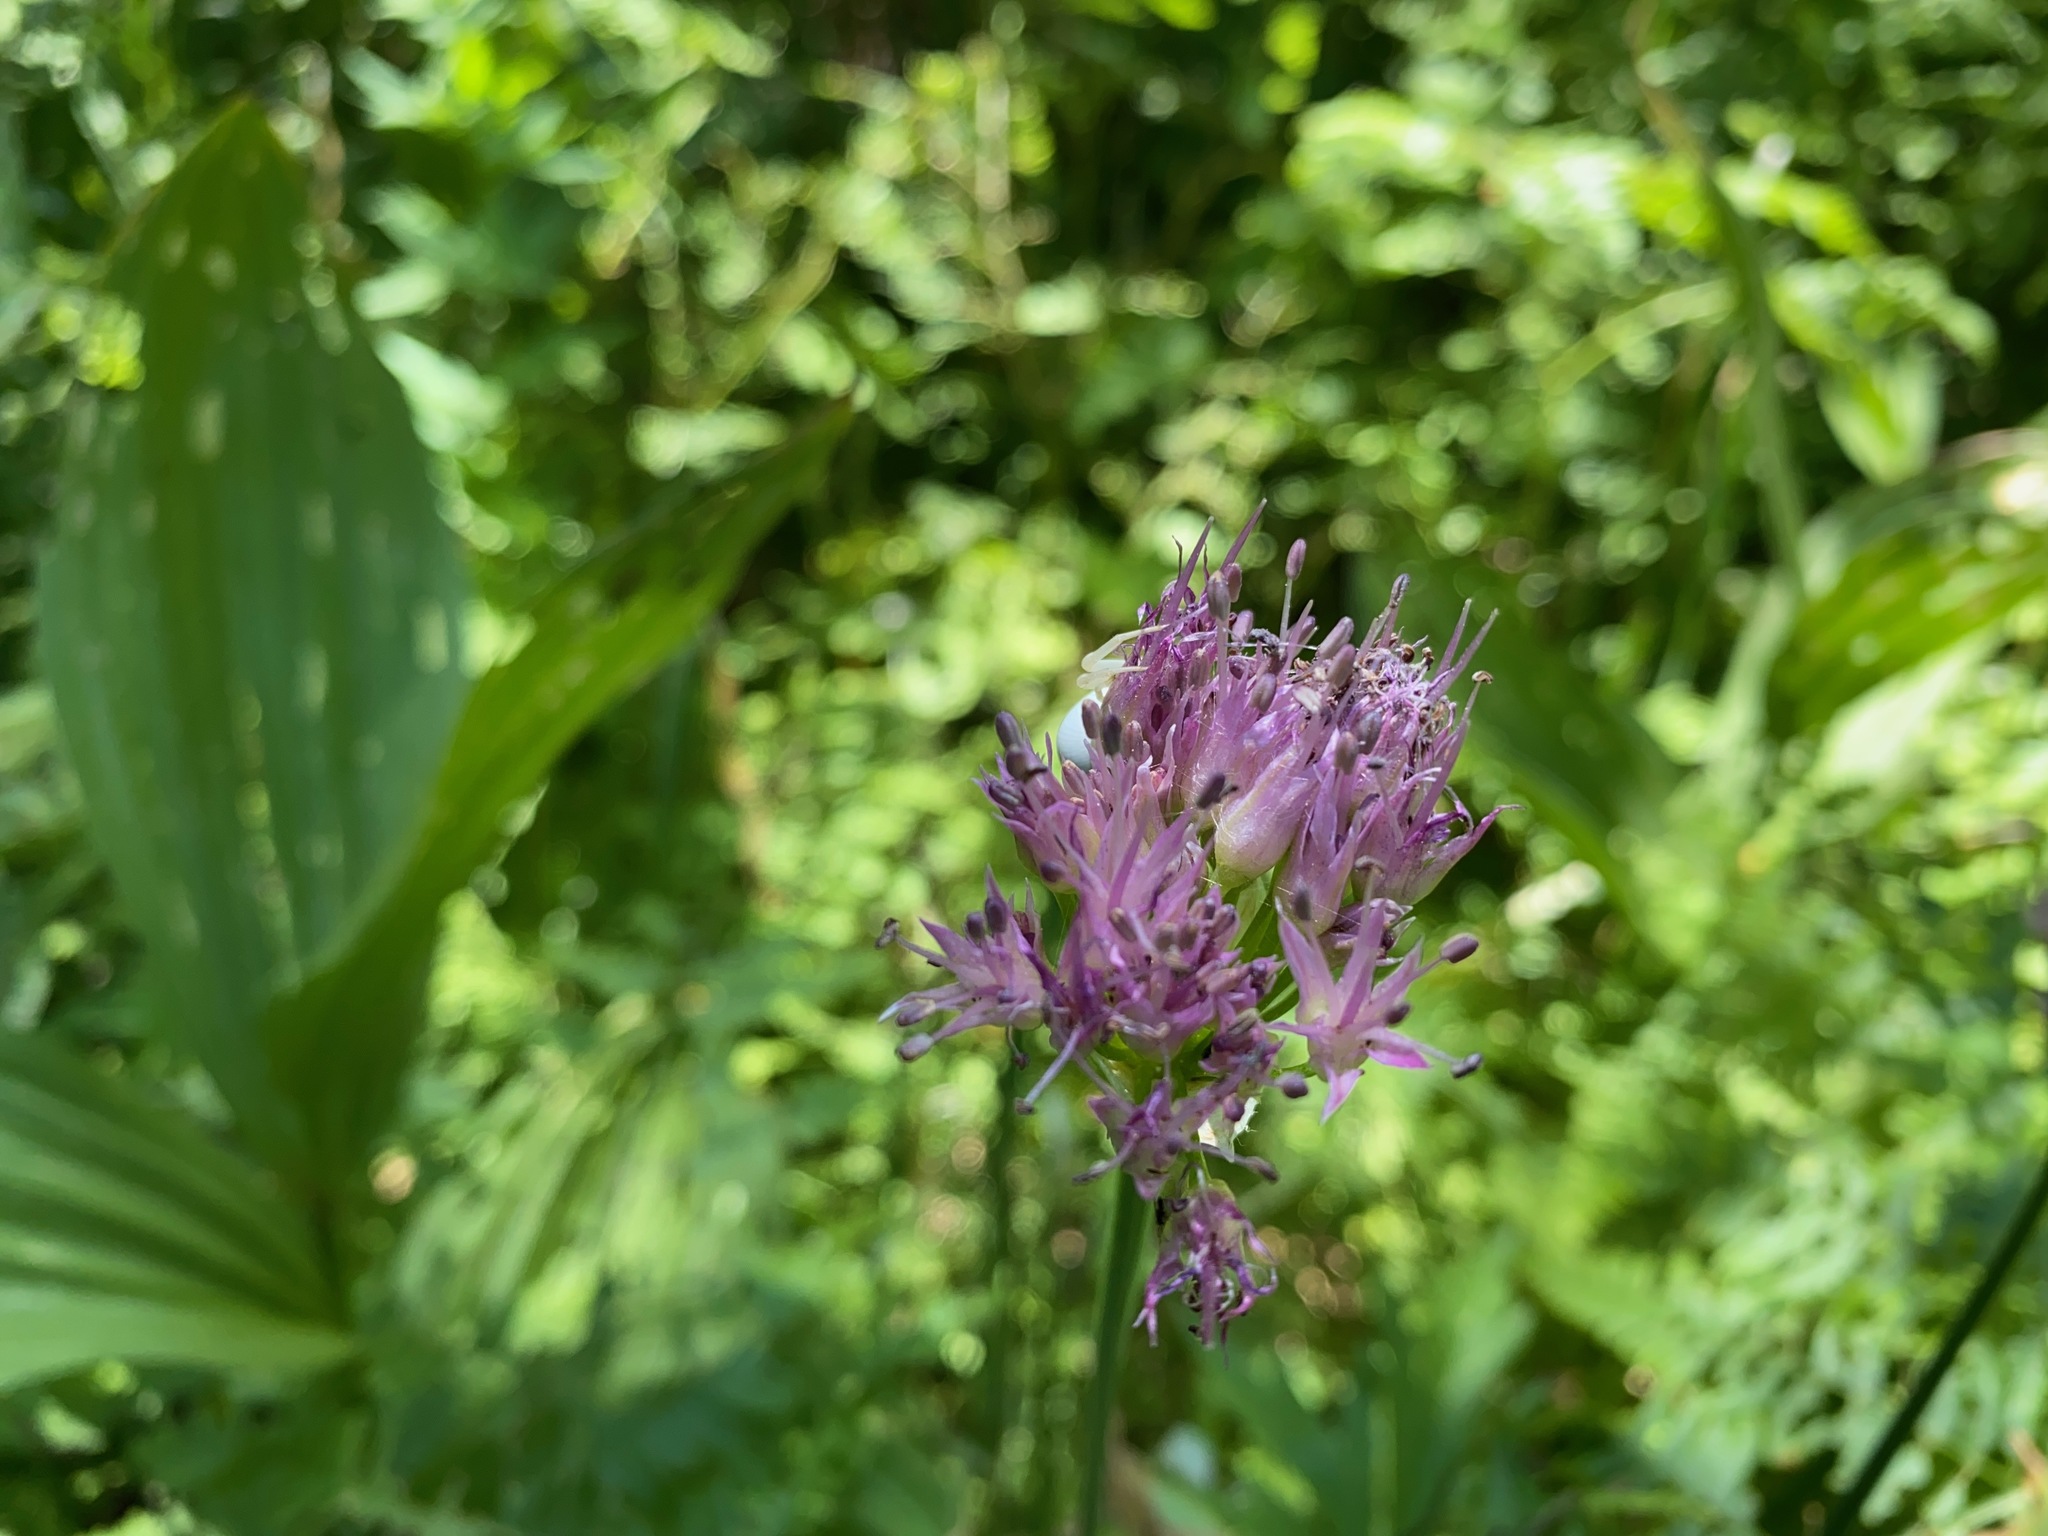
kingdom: Plantae
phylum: Tracheophyta
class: Liliopsida
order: Asparagales
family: Amaryllidaceae
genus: Allium
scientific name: Allium validum
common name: Pacific mountain onion
